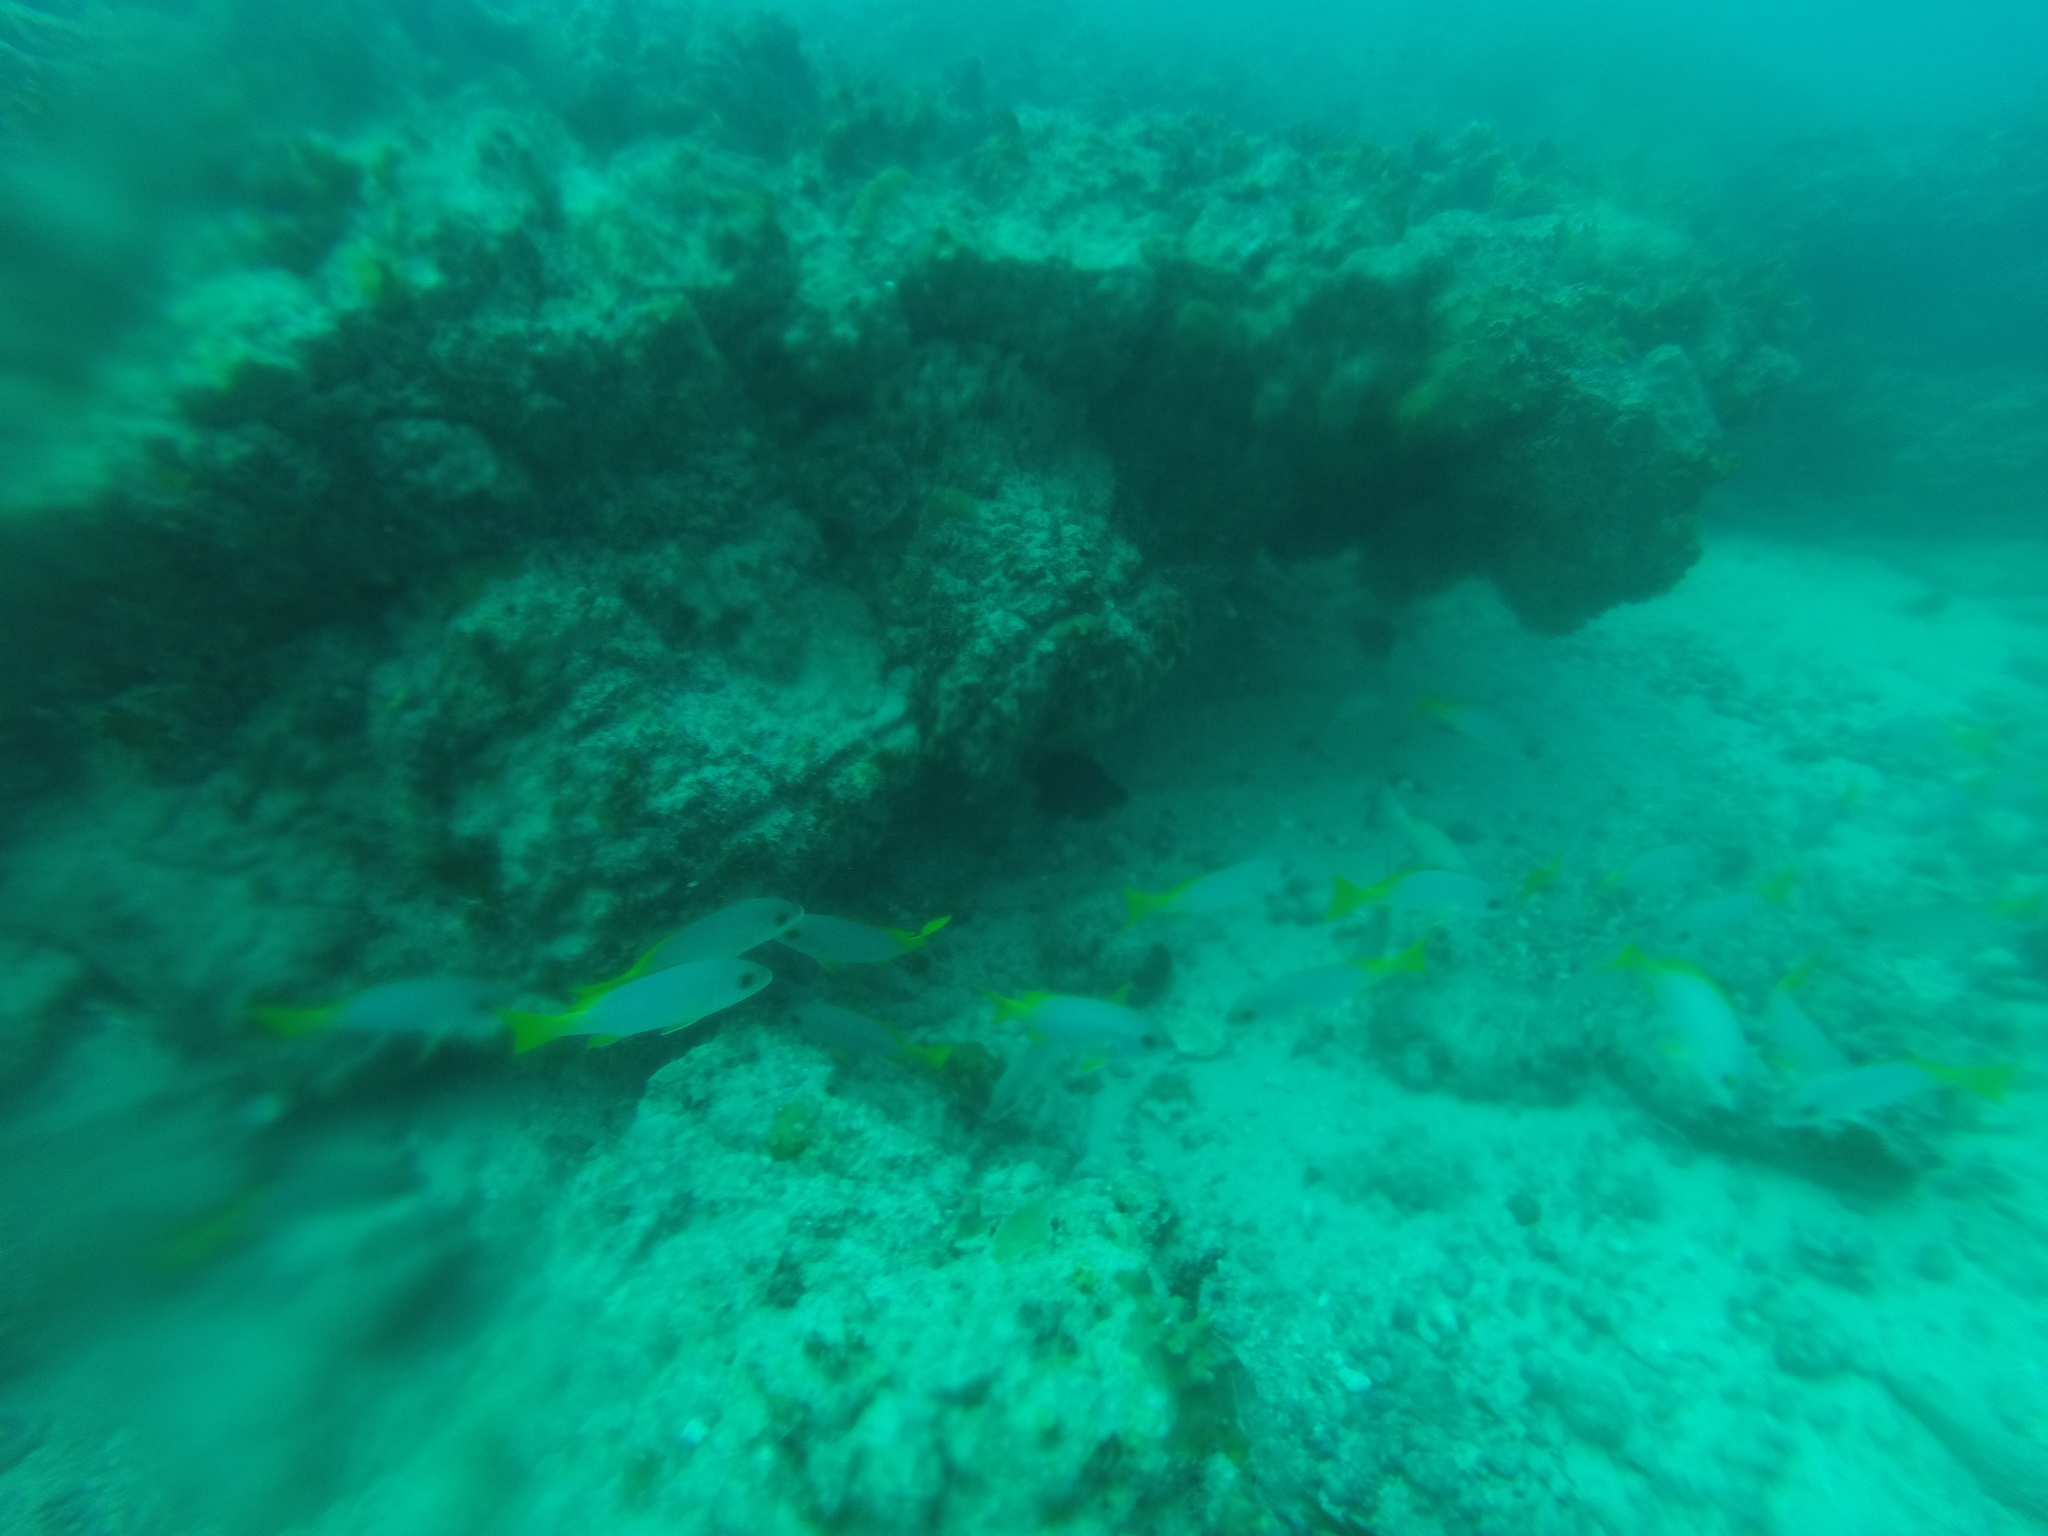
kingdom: Animalia
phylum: Chordata
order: Perciformes
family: Haemulidae
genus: Parapristipoma
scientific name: Parapristipoma humile
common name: Guinean grunt
